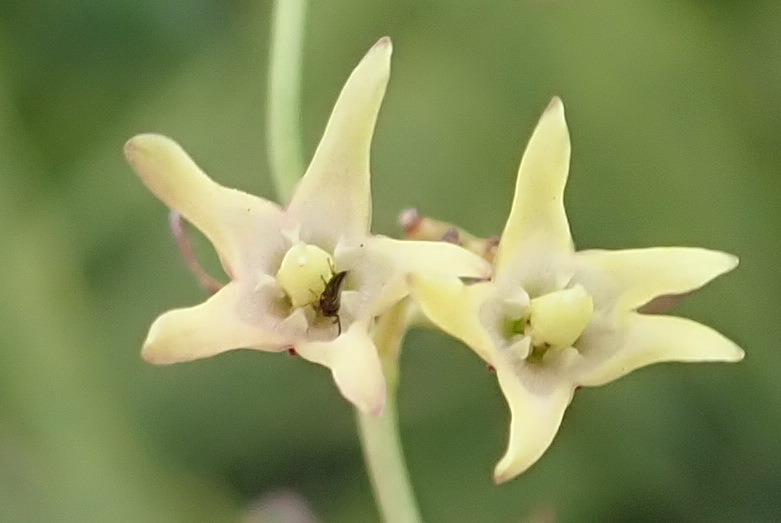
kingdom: Plantae
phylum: Tracheophyta
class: Magnoliopsida
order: Gentianales
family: Apocynaceae
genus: Oncinema
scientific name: Oncinema lineare
